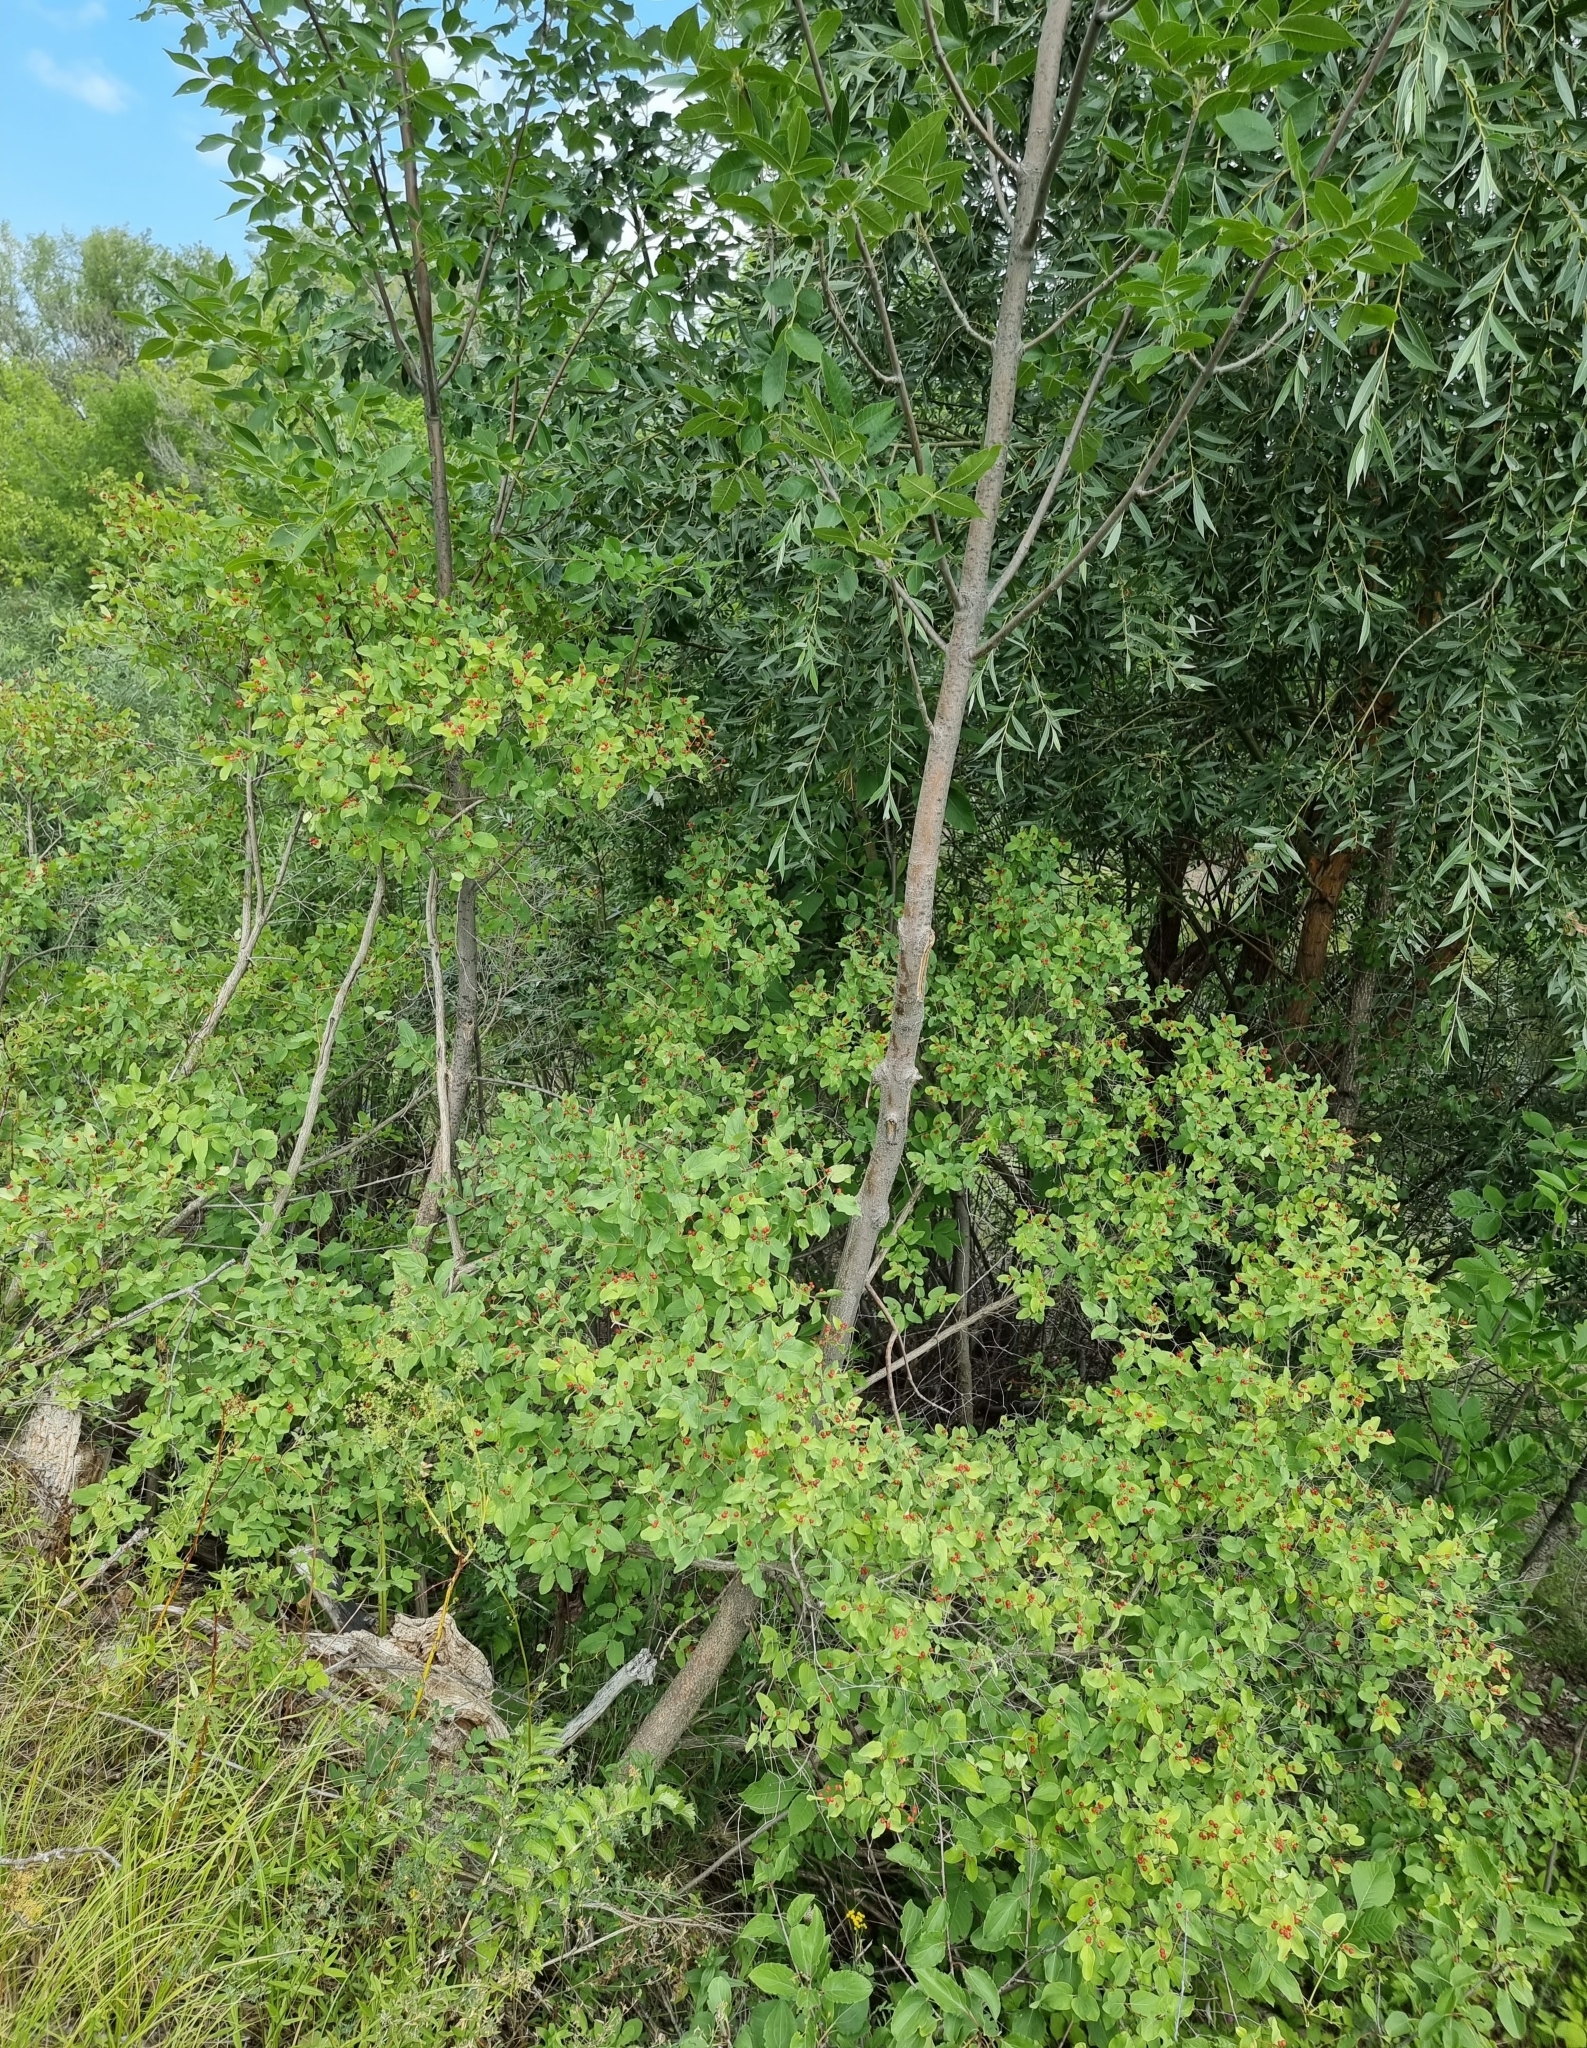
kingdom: Plantae
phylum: Tracheophyta
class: Magnoliopsida
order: Dipsacales
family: Caprifoliaceae
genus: Lonicera
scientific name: Lonicera tatarica
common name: Tatarian honeysuckle
